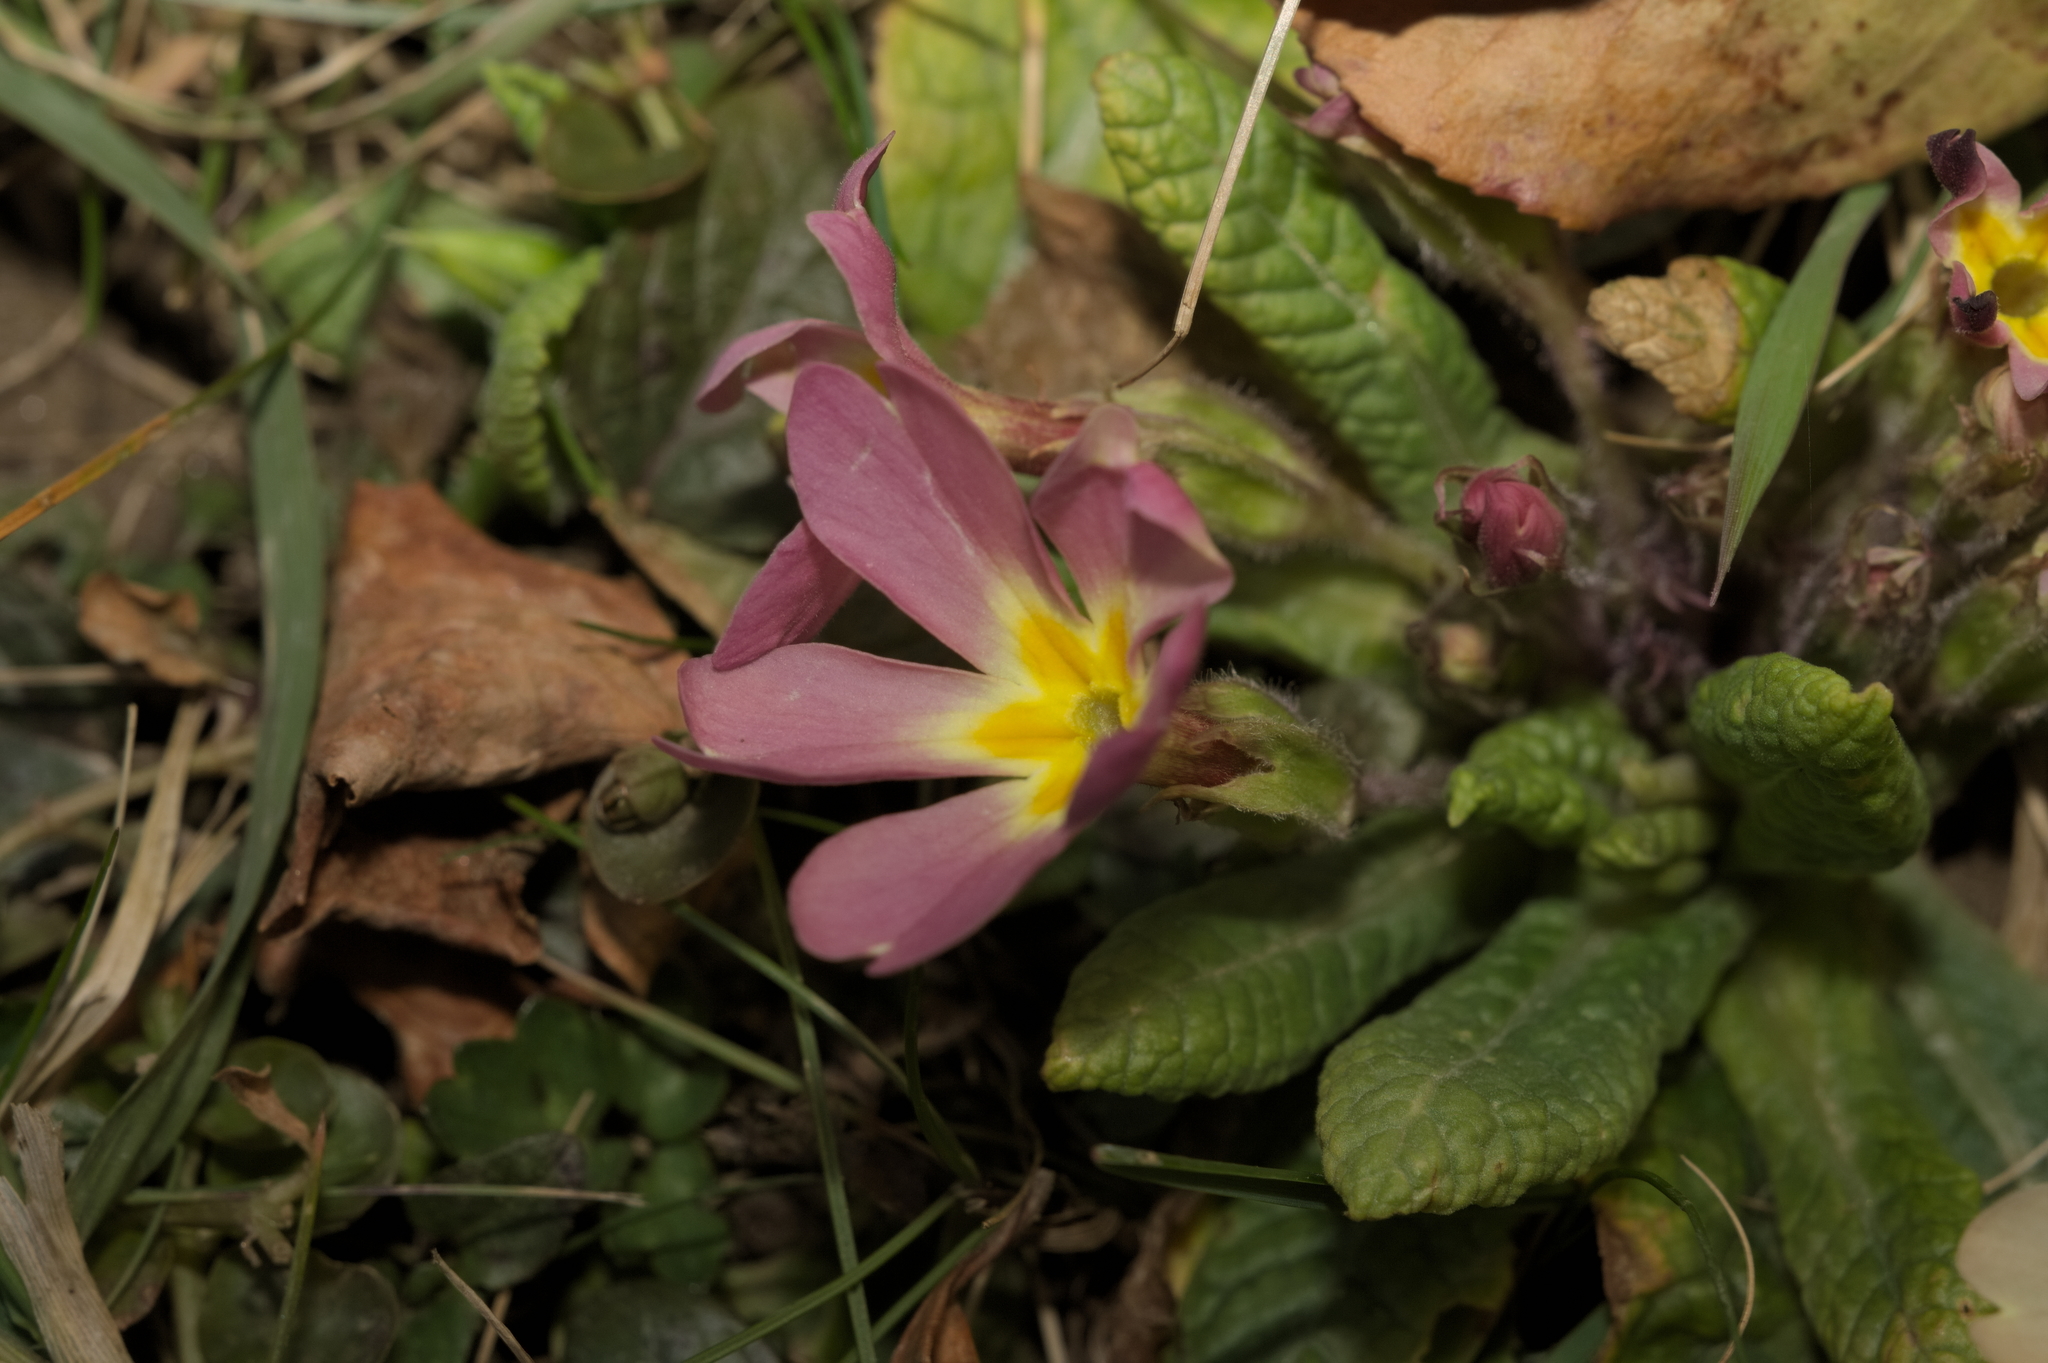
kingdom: Plantae
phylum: Tracheophyta
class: Magnoliopsida
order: Ericales
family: Primulaceae
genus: Primula
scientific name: Primula vulgaris
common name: Primrose
